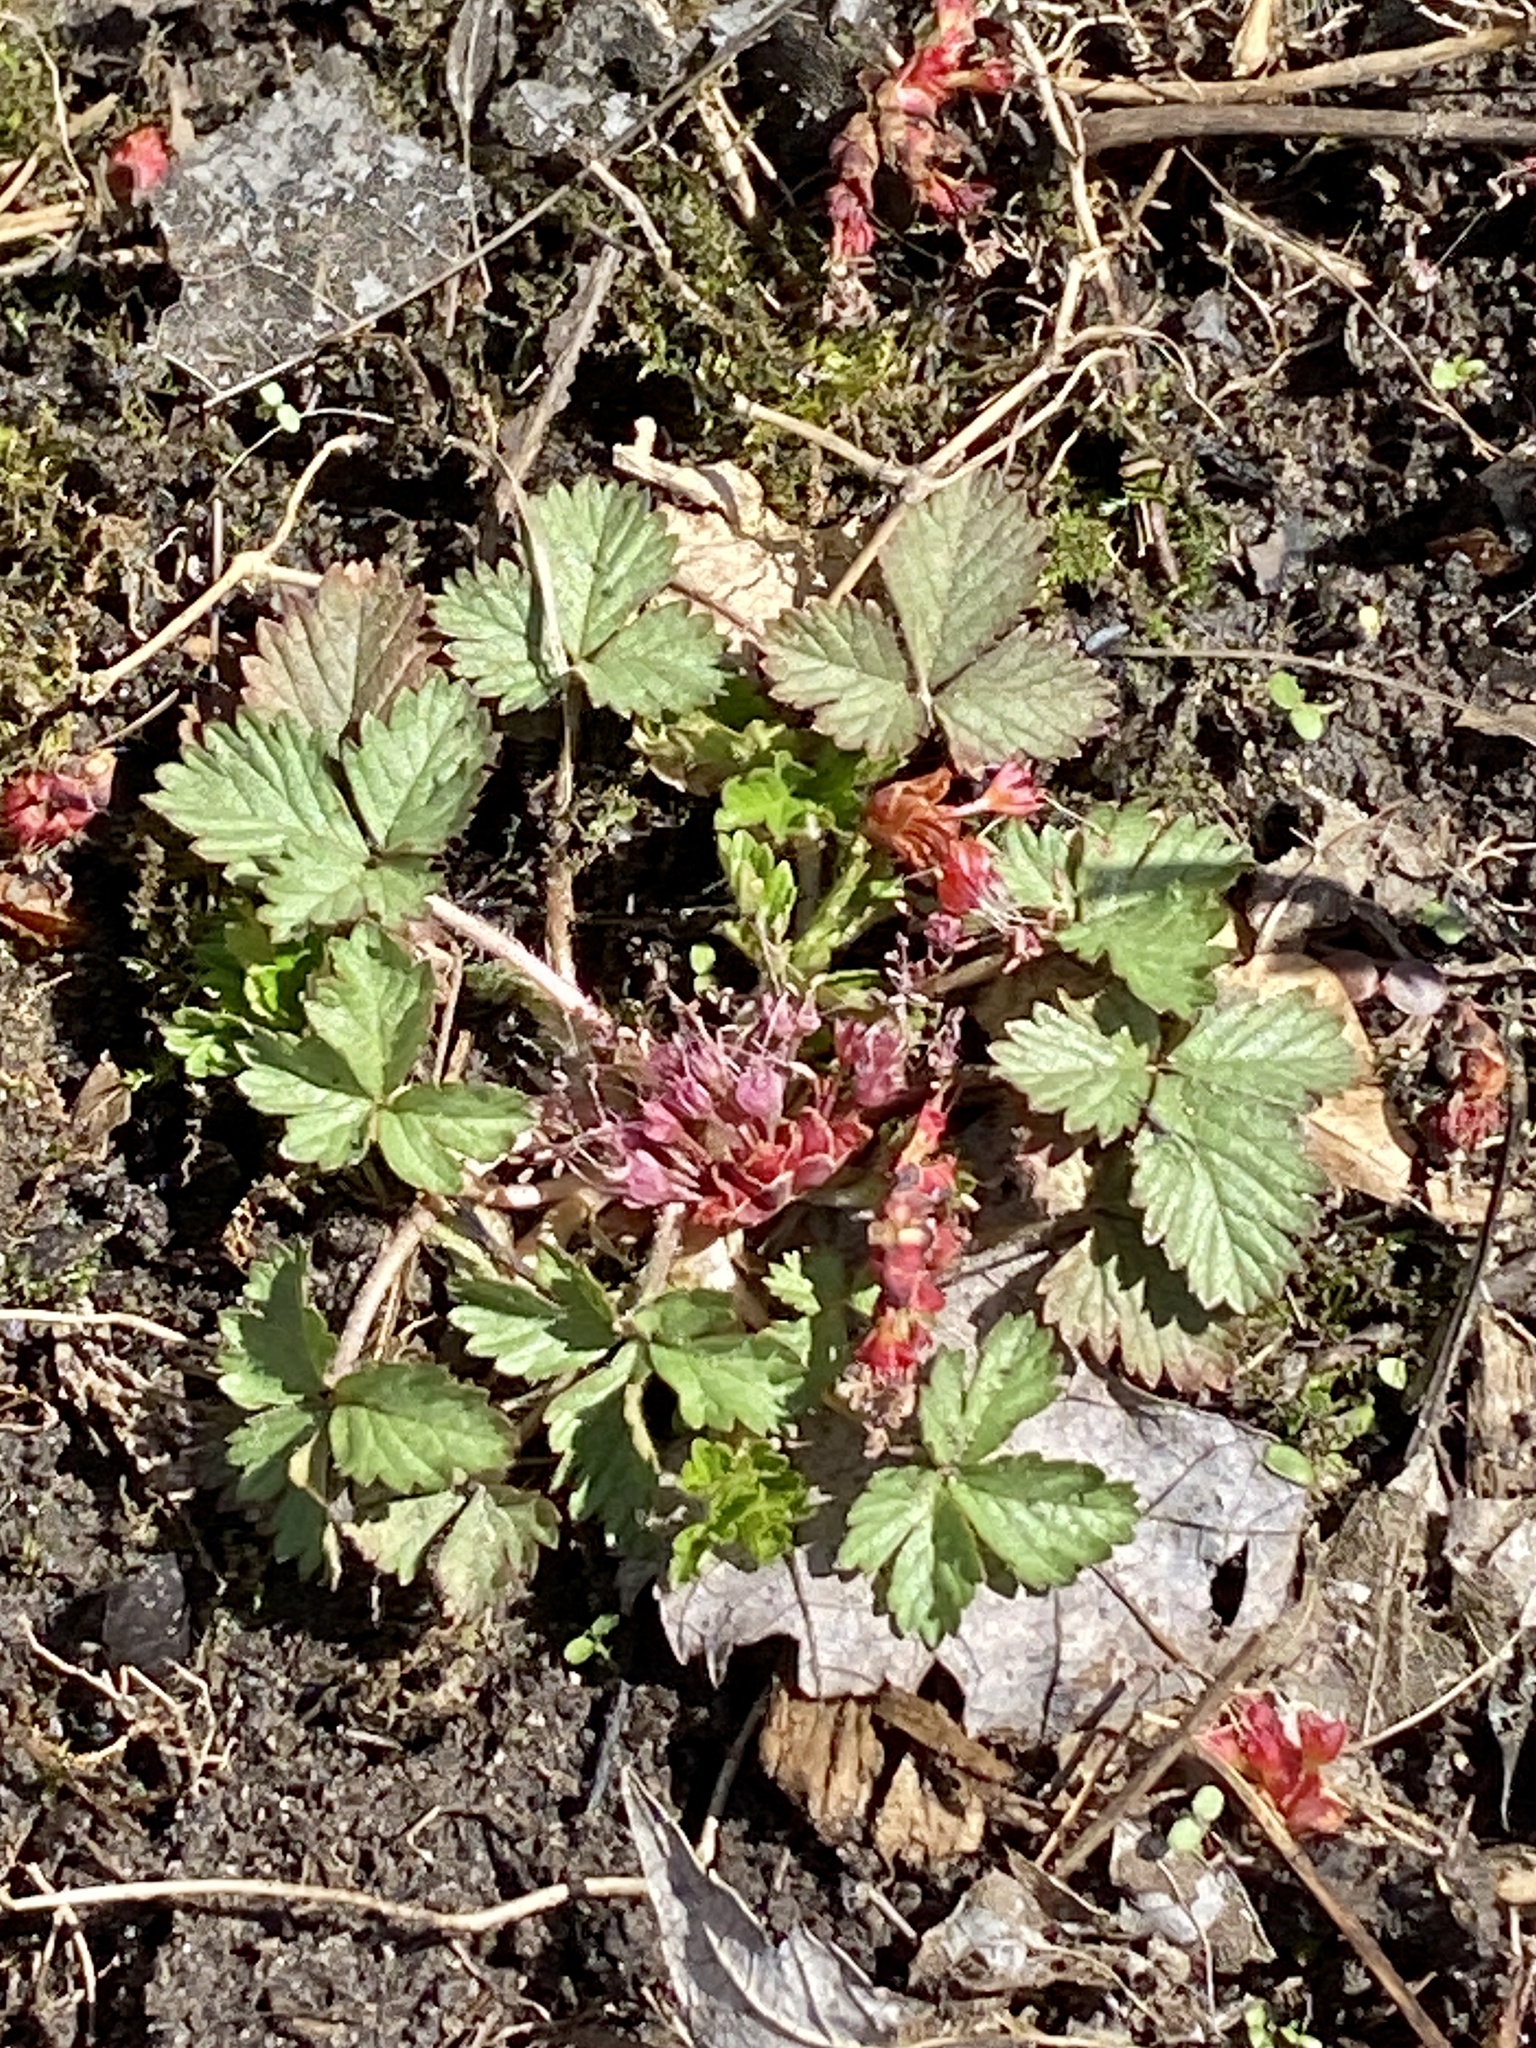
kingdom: Plantae
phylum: Tracheophyta
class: Magnoliopsida
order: Rosales
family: Rosaceae
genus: Potentilla
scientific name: Potentilla indica
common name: Yellow-flowered strawberry
